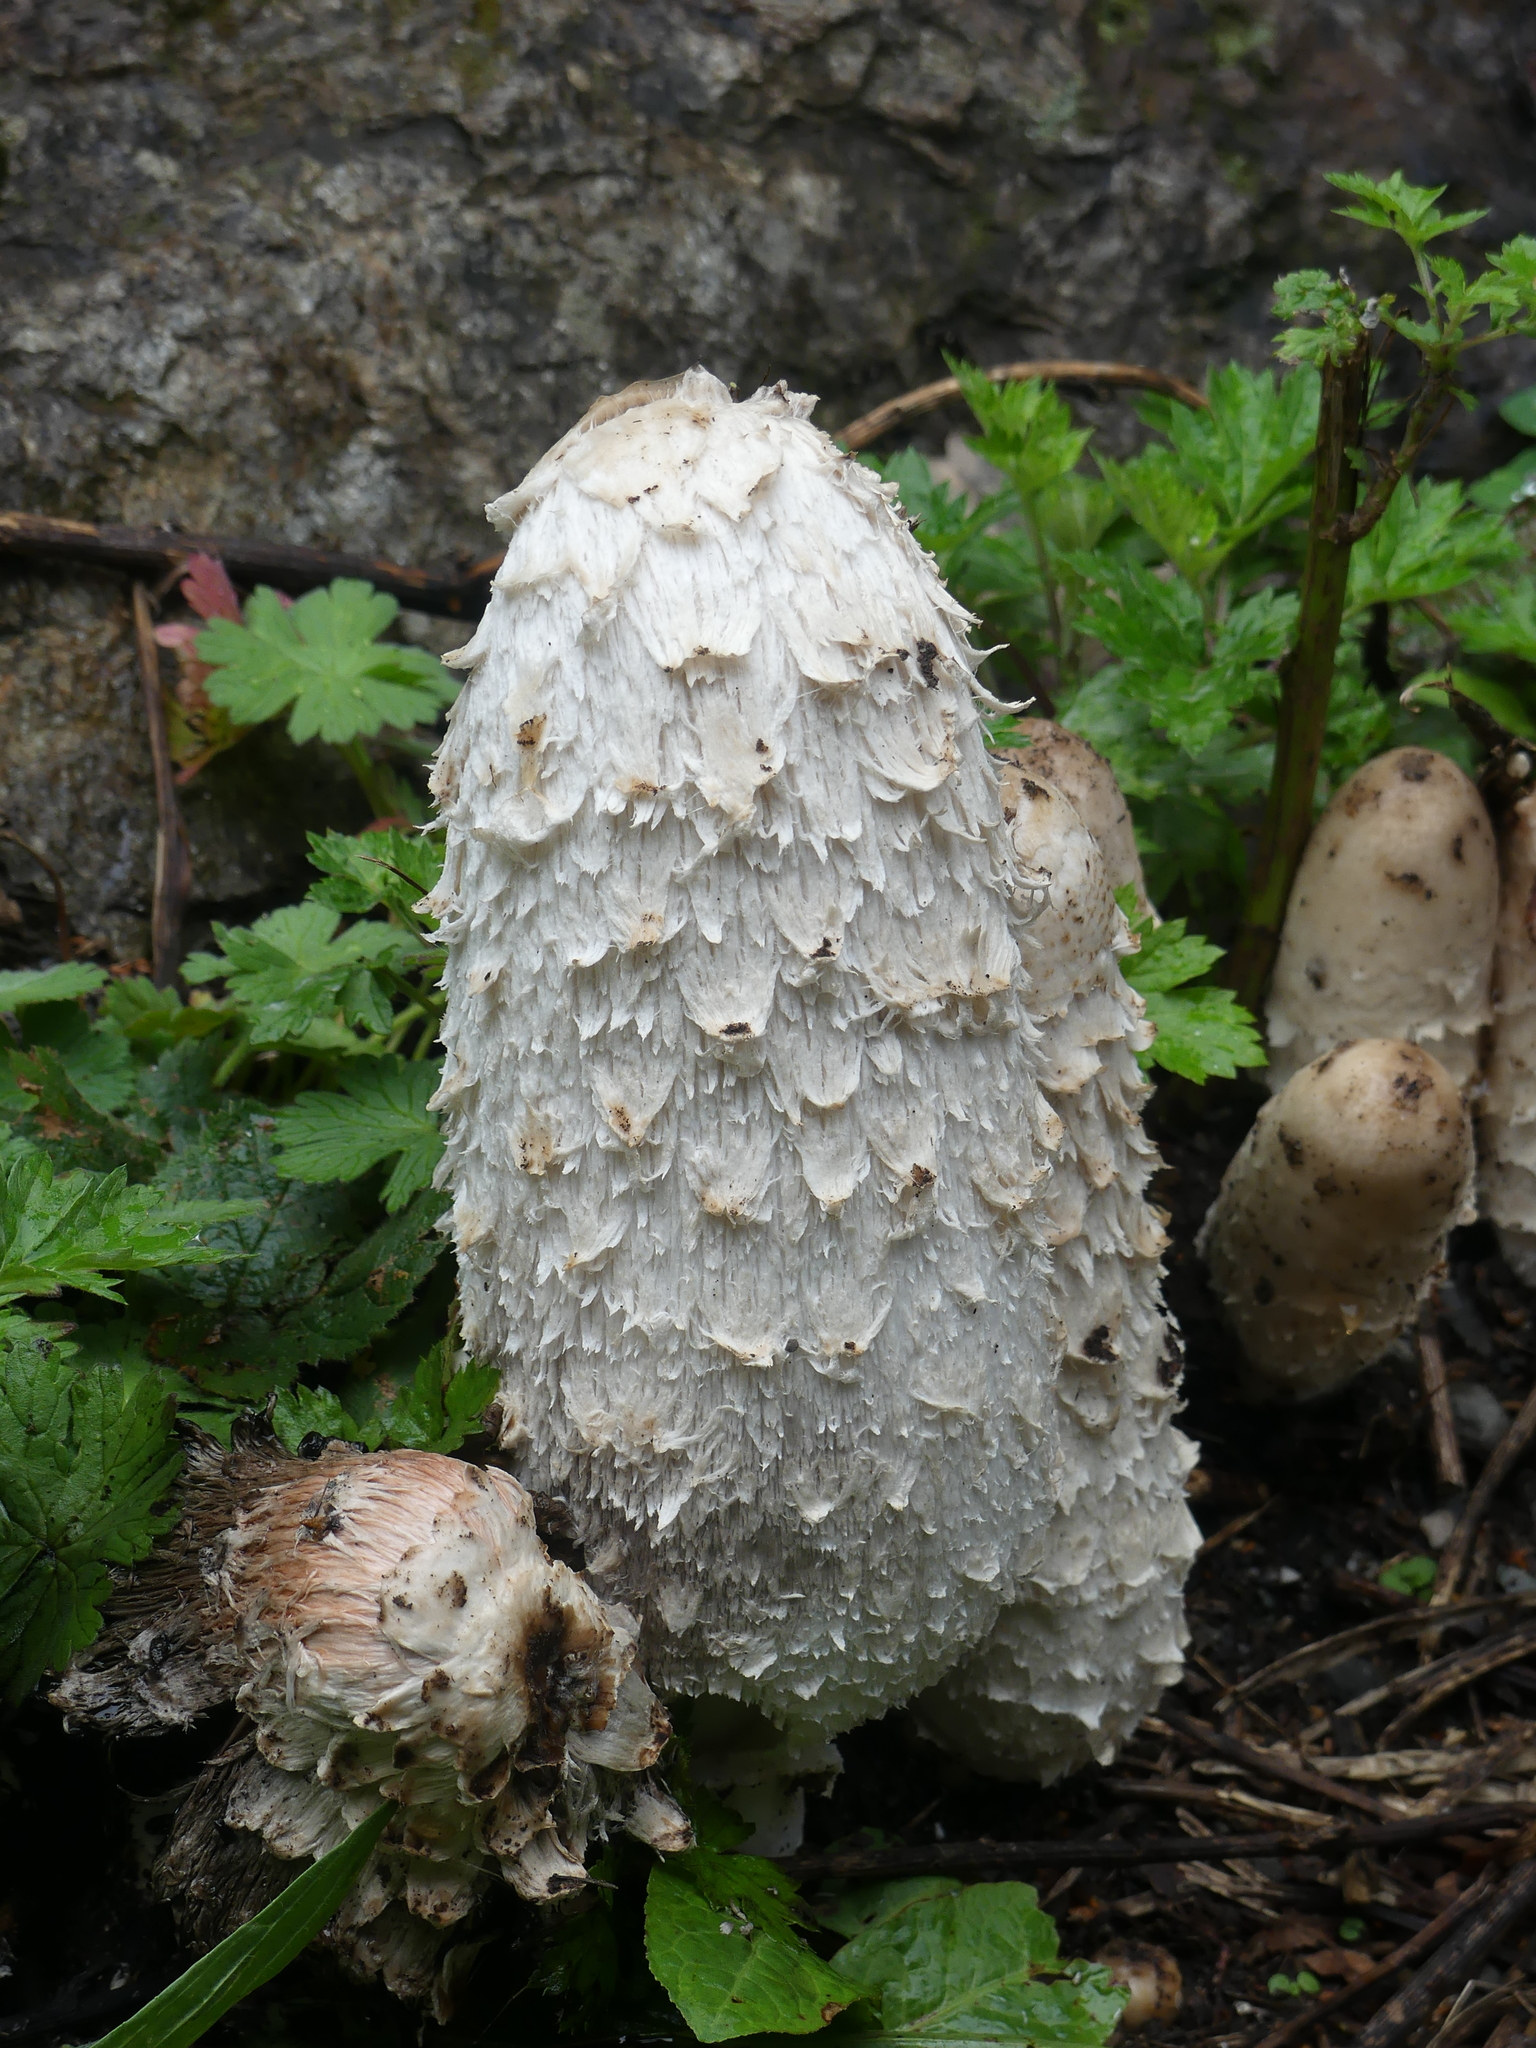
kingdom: Fungi
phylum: Basidiomycota
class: Agaricomycetes
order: Agaricales
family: Agaricaceae
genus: Coprinus
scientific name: Coprinus comatus
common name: Lawyer's wig
